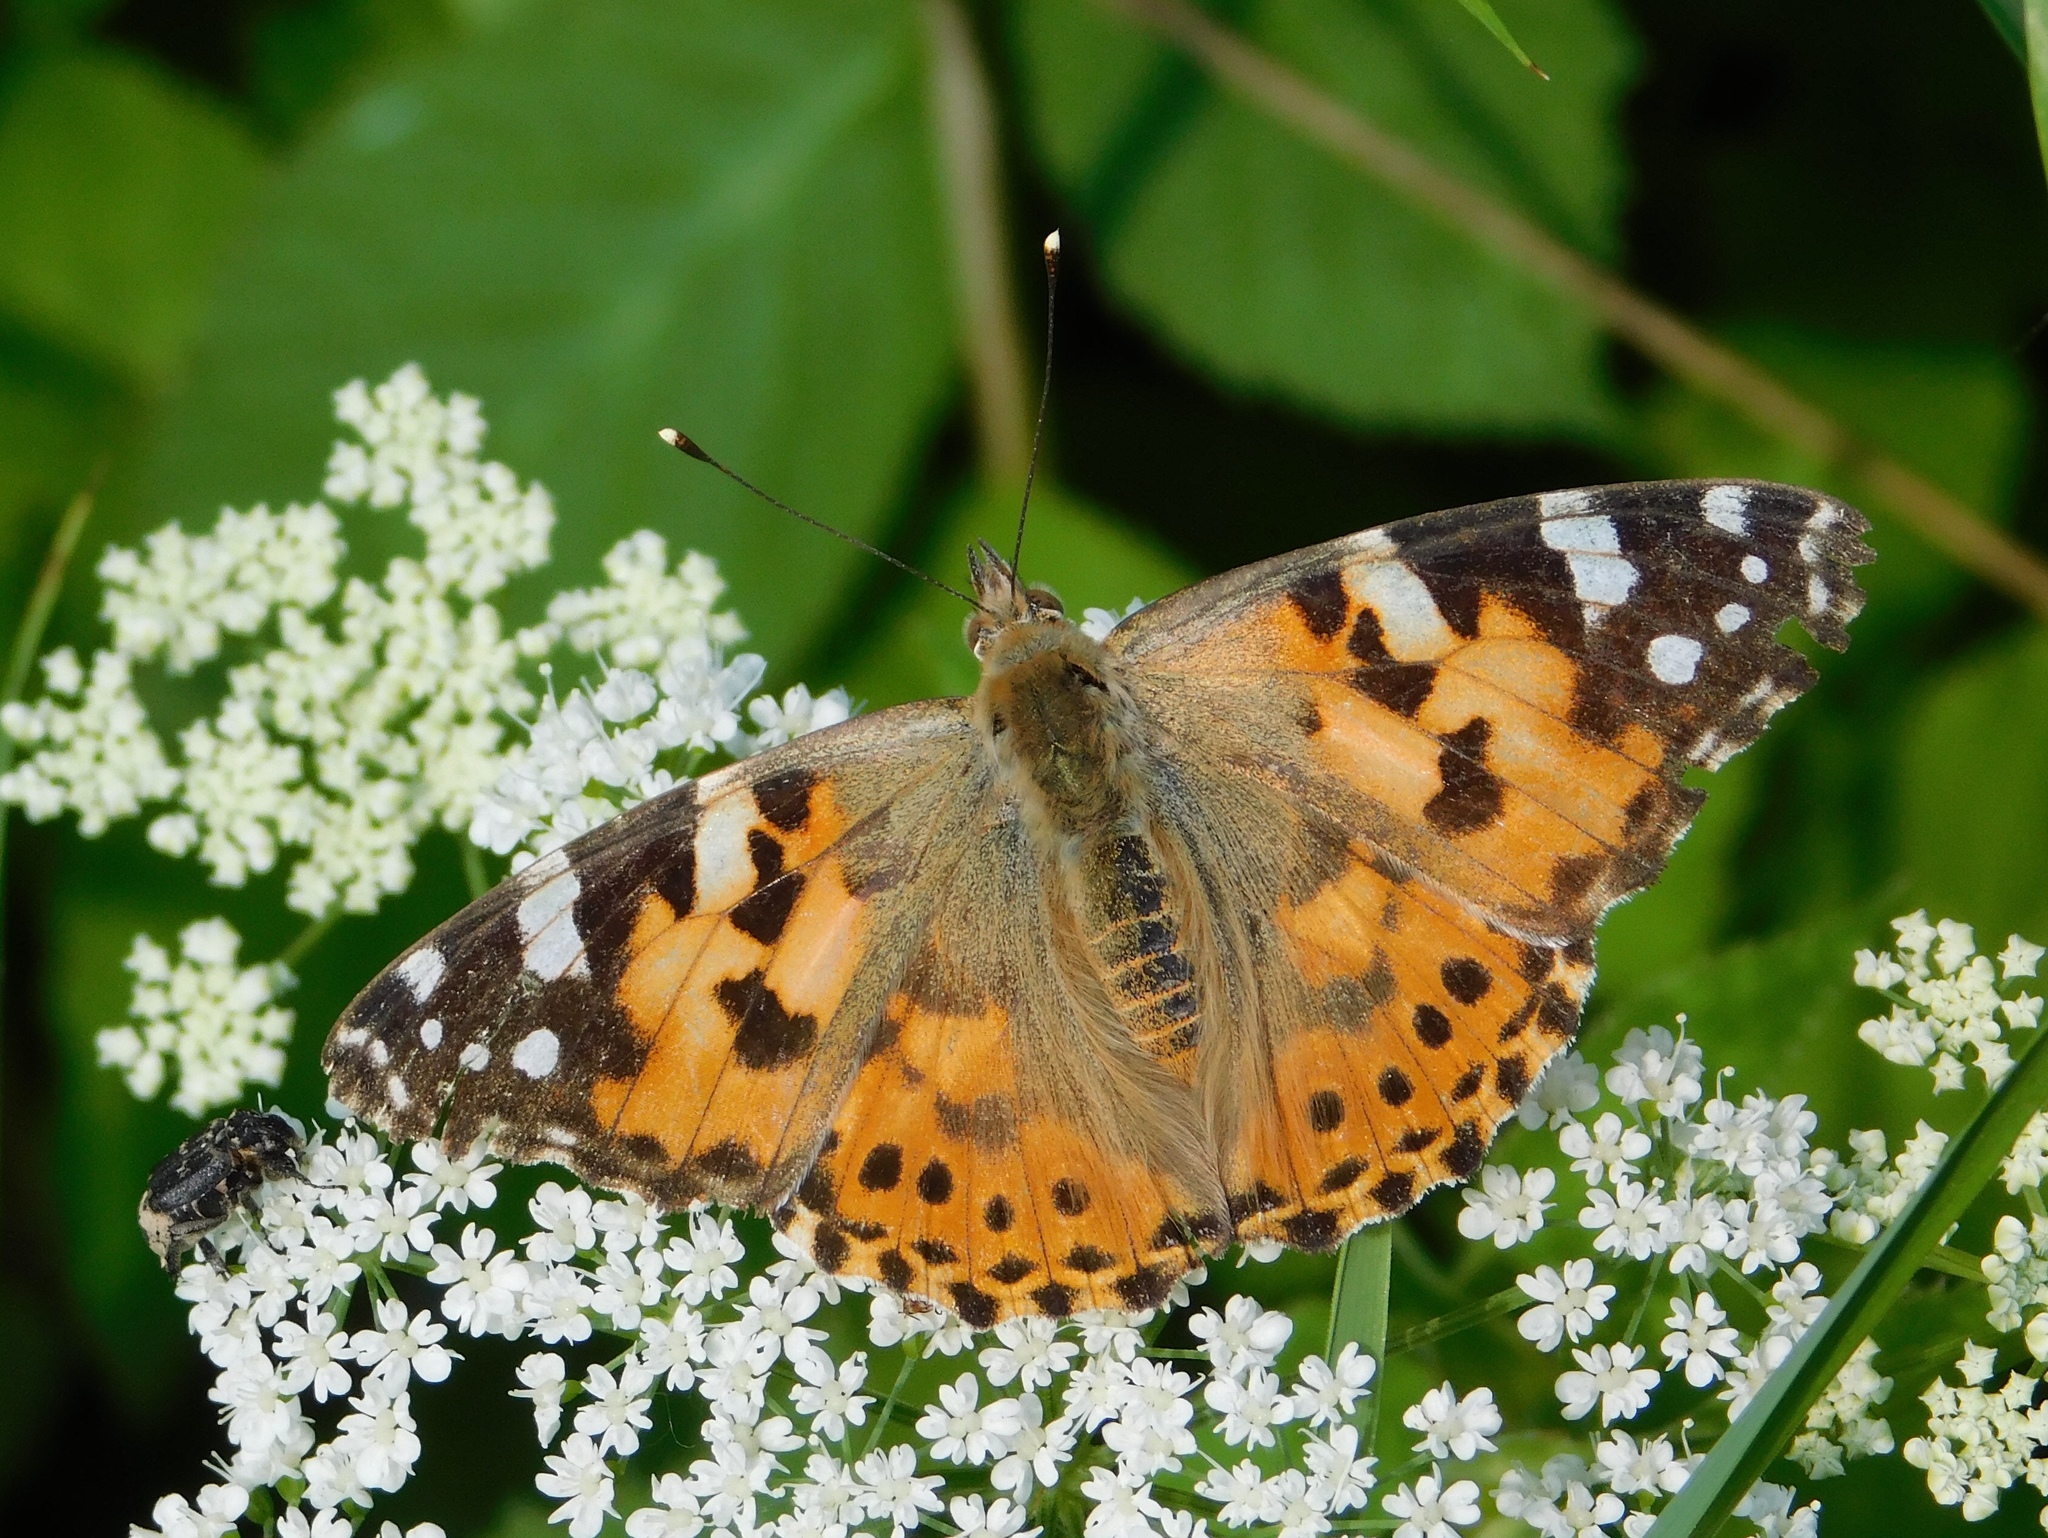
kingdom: Animalia
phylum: Arthropoda
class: Insecta
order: Lepidoptera
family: Nymphalidae
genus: Vanessa
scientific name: Vanessa cardui
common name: Painted lady
